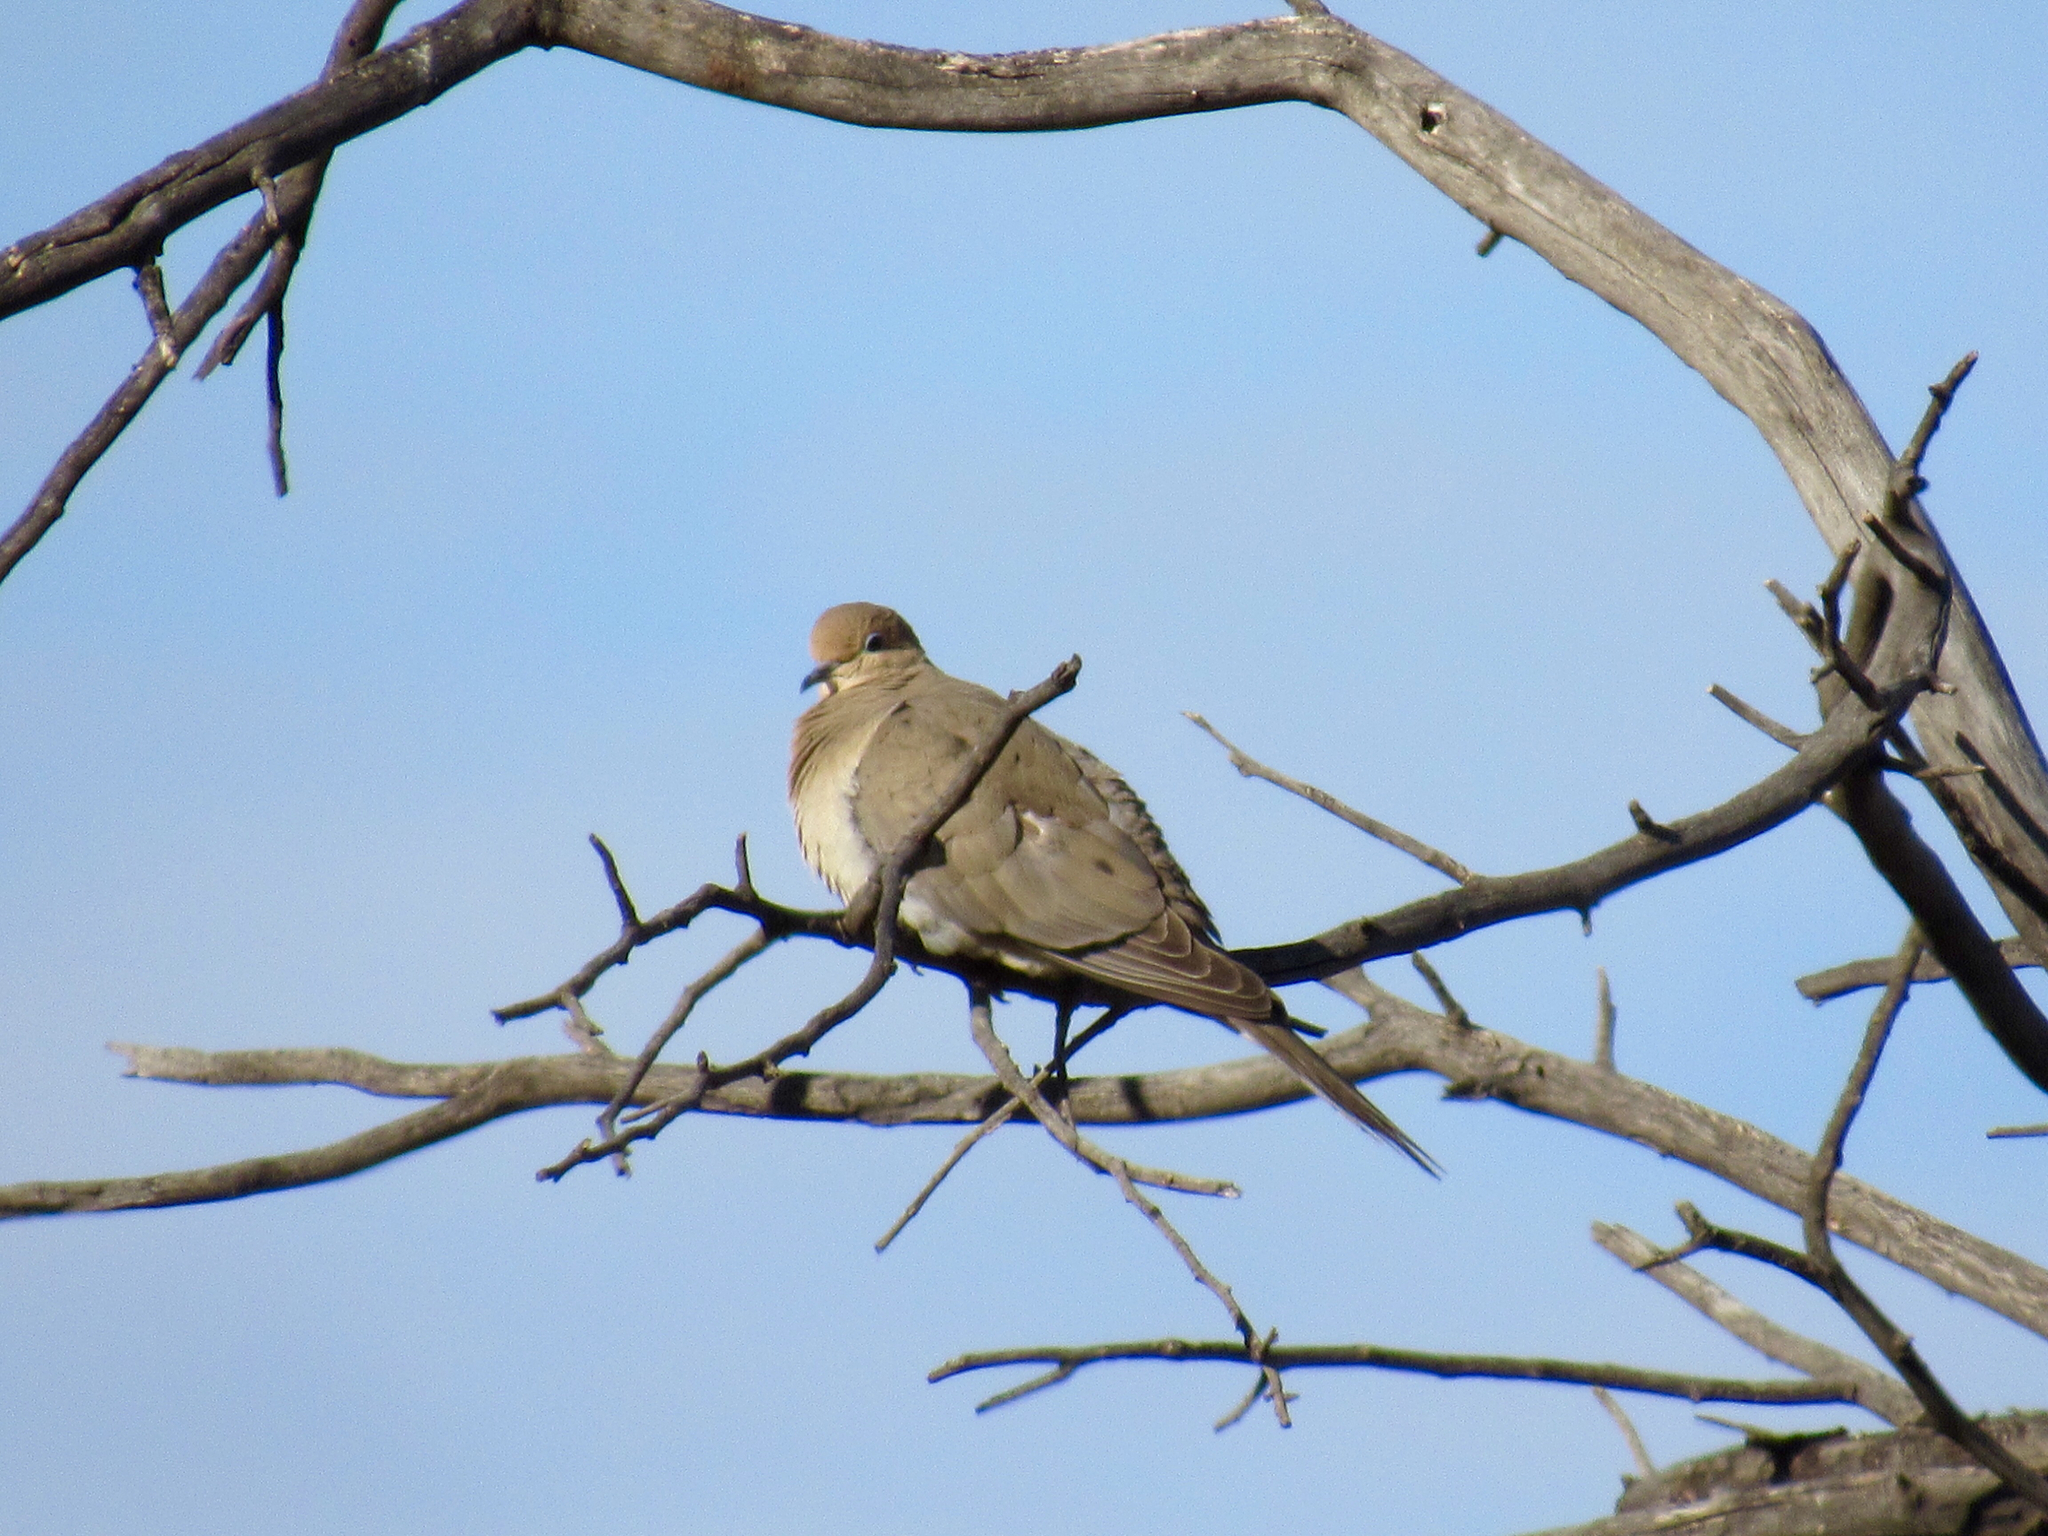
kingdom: Animalia
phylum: Chordata
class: Aves
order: Columbiformes
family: Columbidae
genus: Zenaida
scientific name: Zenaida macroura
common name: Mourning dove
